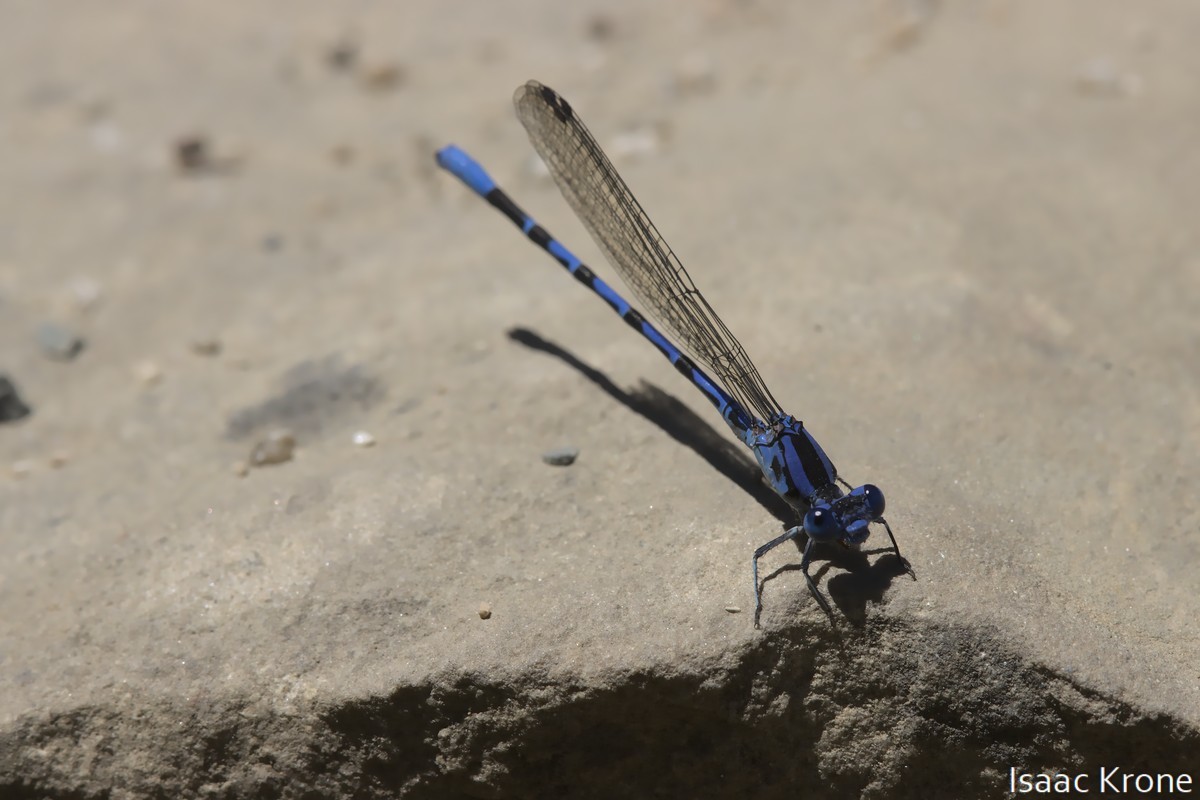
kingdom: Animalia
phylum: Arthropoda
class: Insecta
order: Odonata
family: Coenagrionidae
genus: Argia
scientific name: Argia vivida
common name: Vivid dancer
